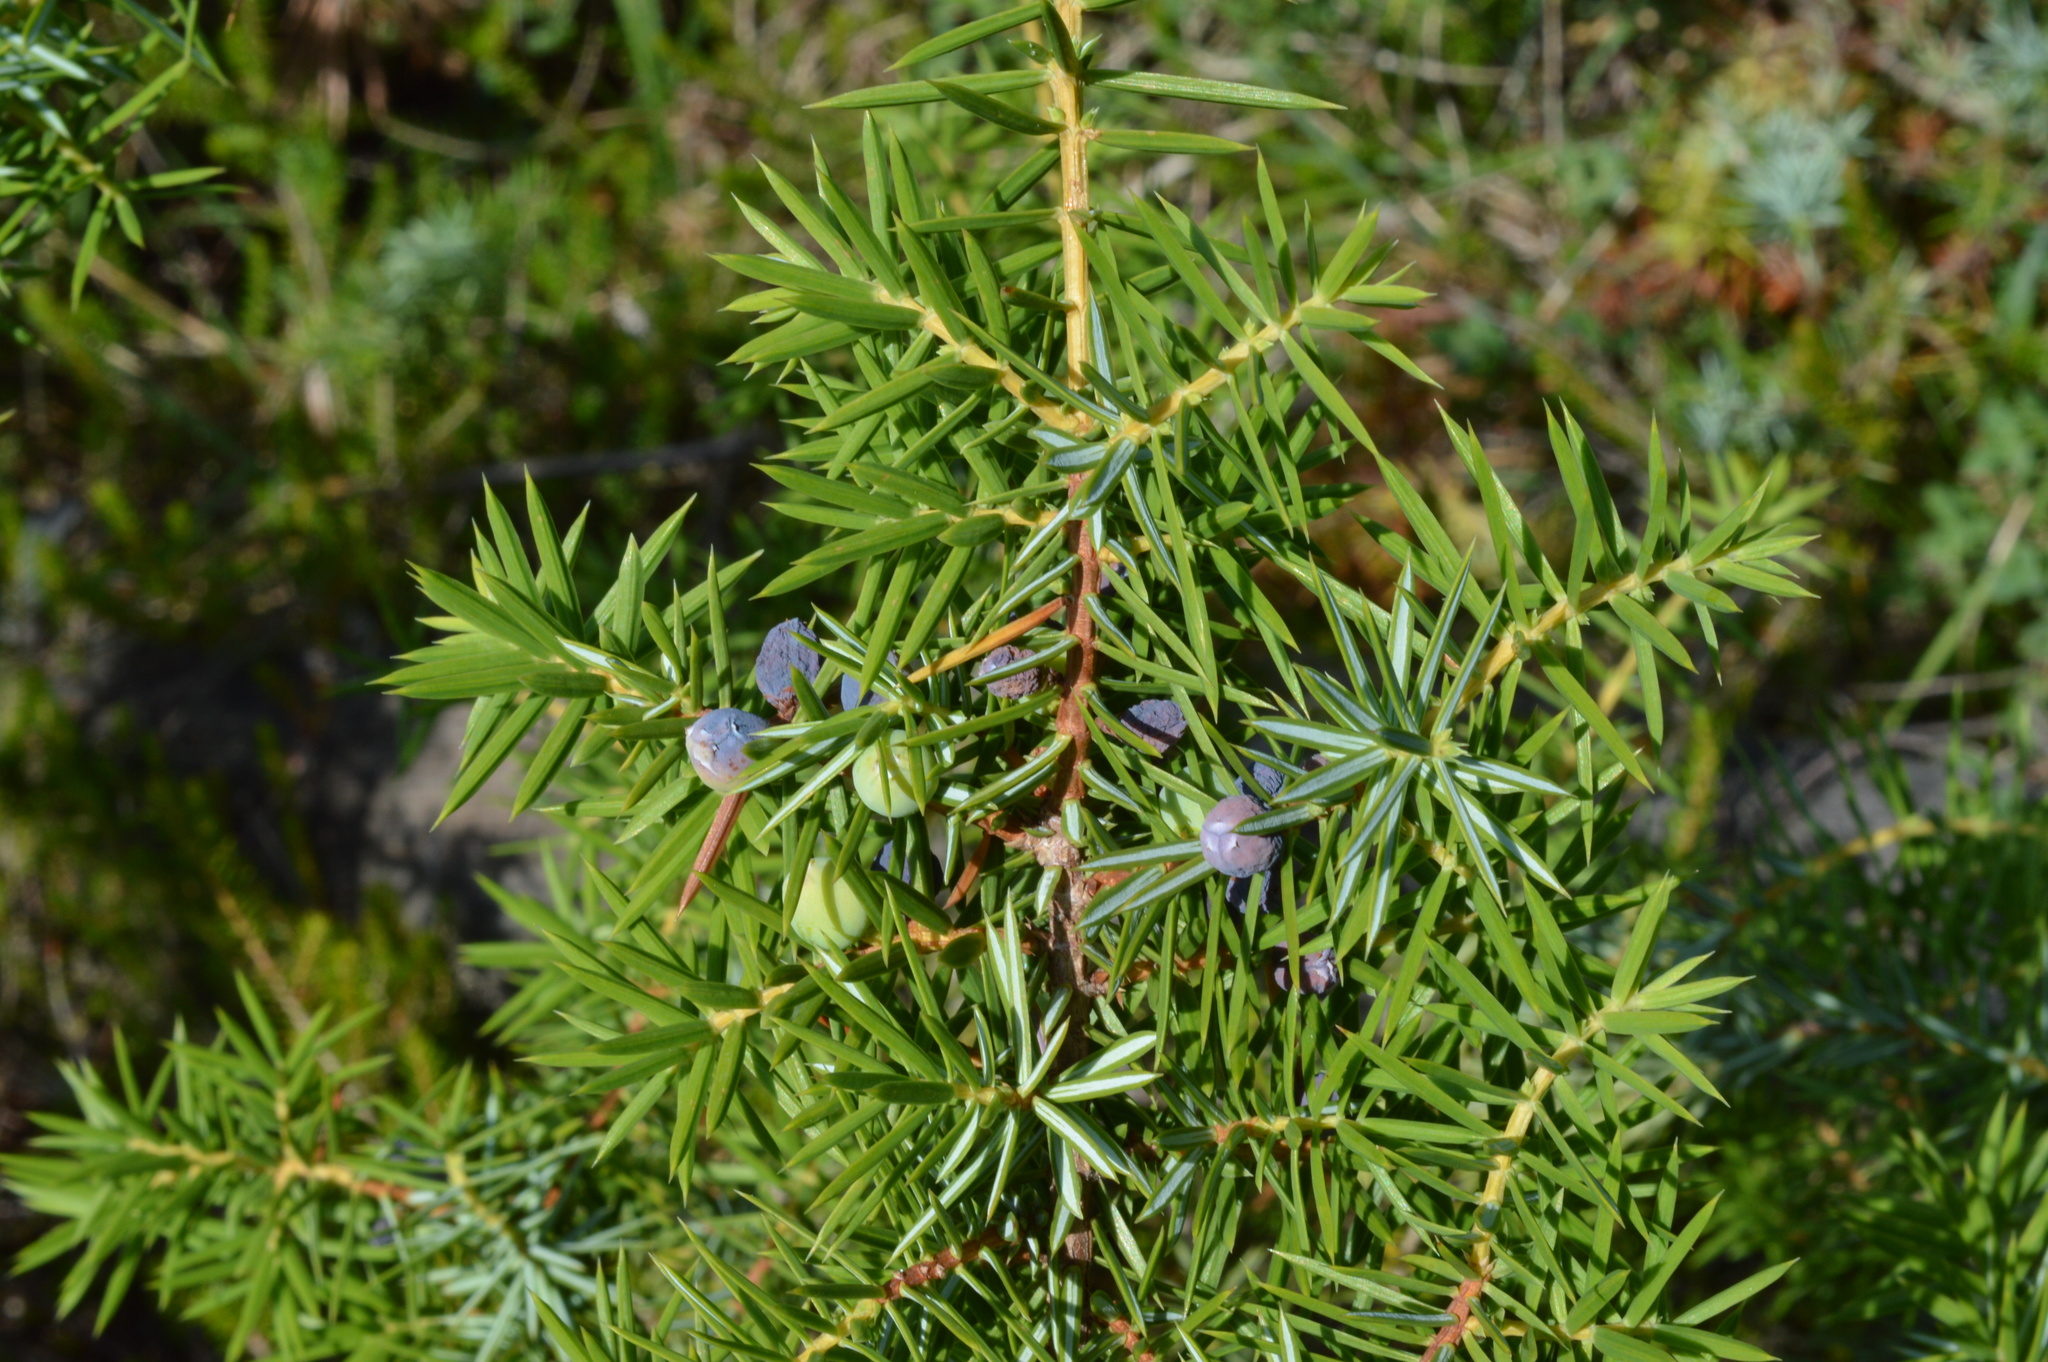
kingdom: Plantae
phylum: Tracheophyta
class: Pinopsida
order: Pinales
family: Cupressaceae
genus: Juniperus
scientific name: Juniperus communis
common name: Common juniper
